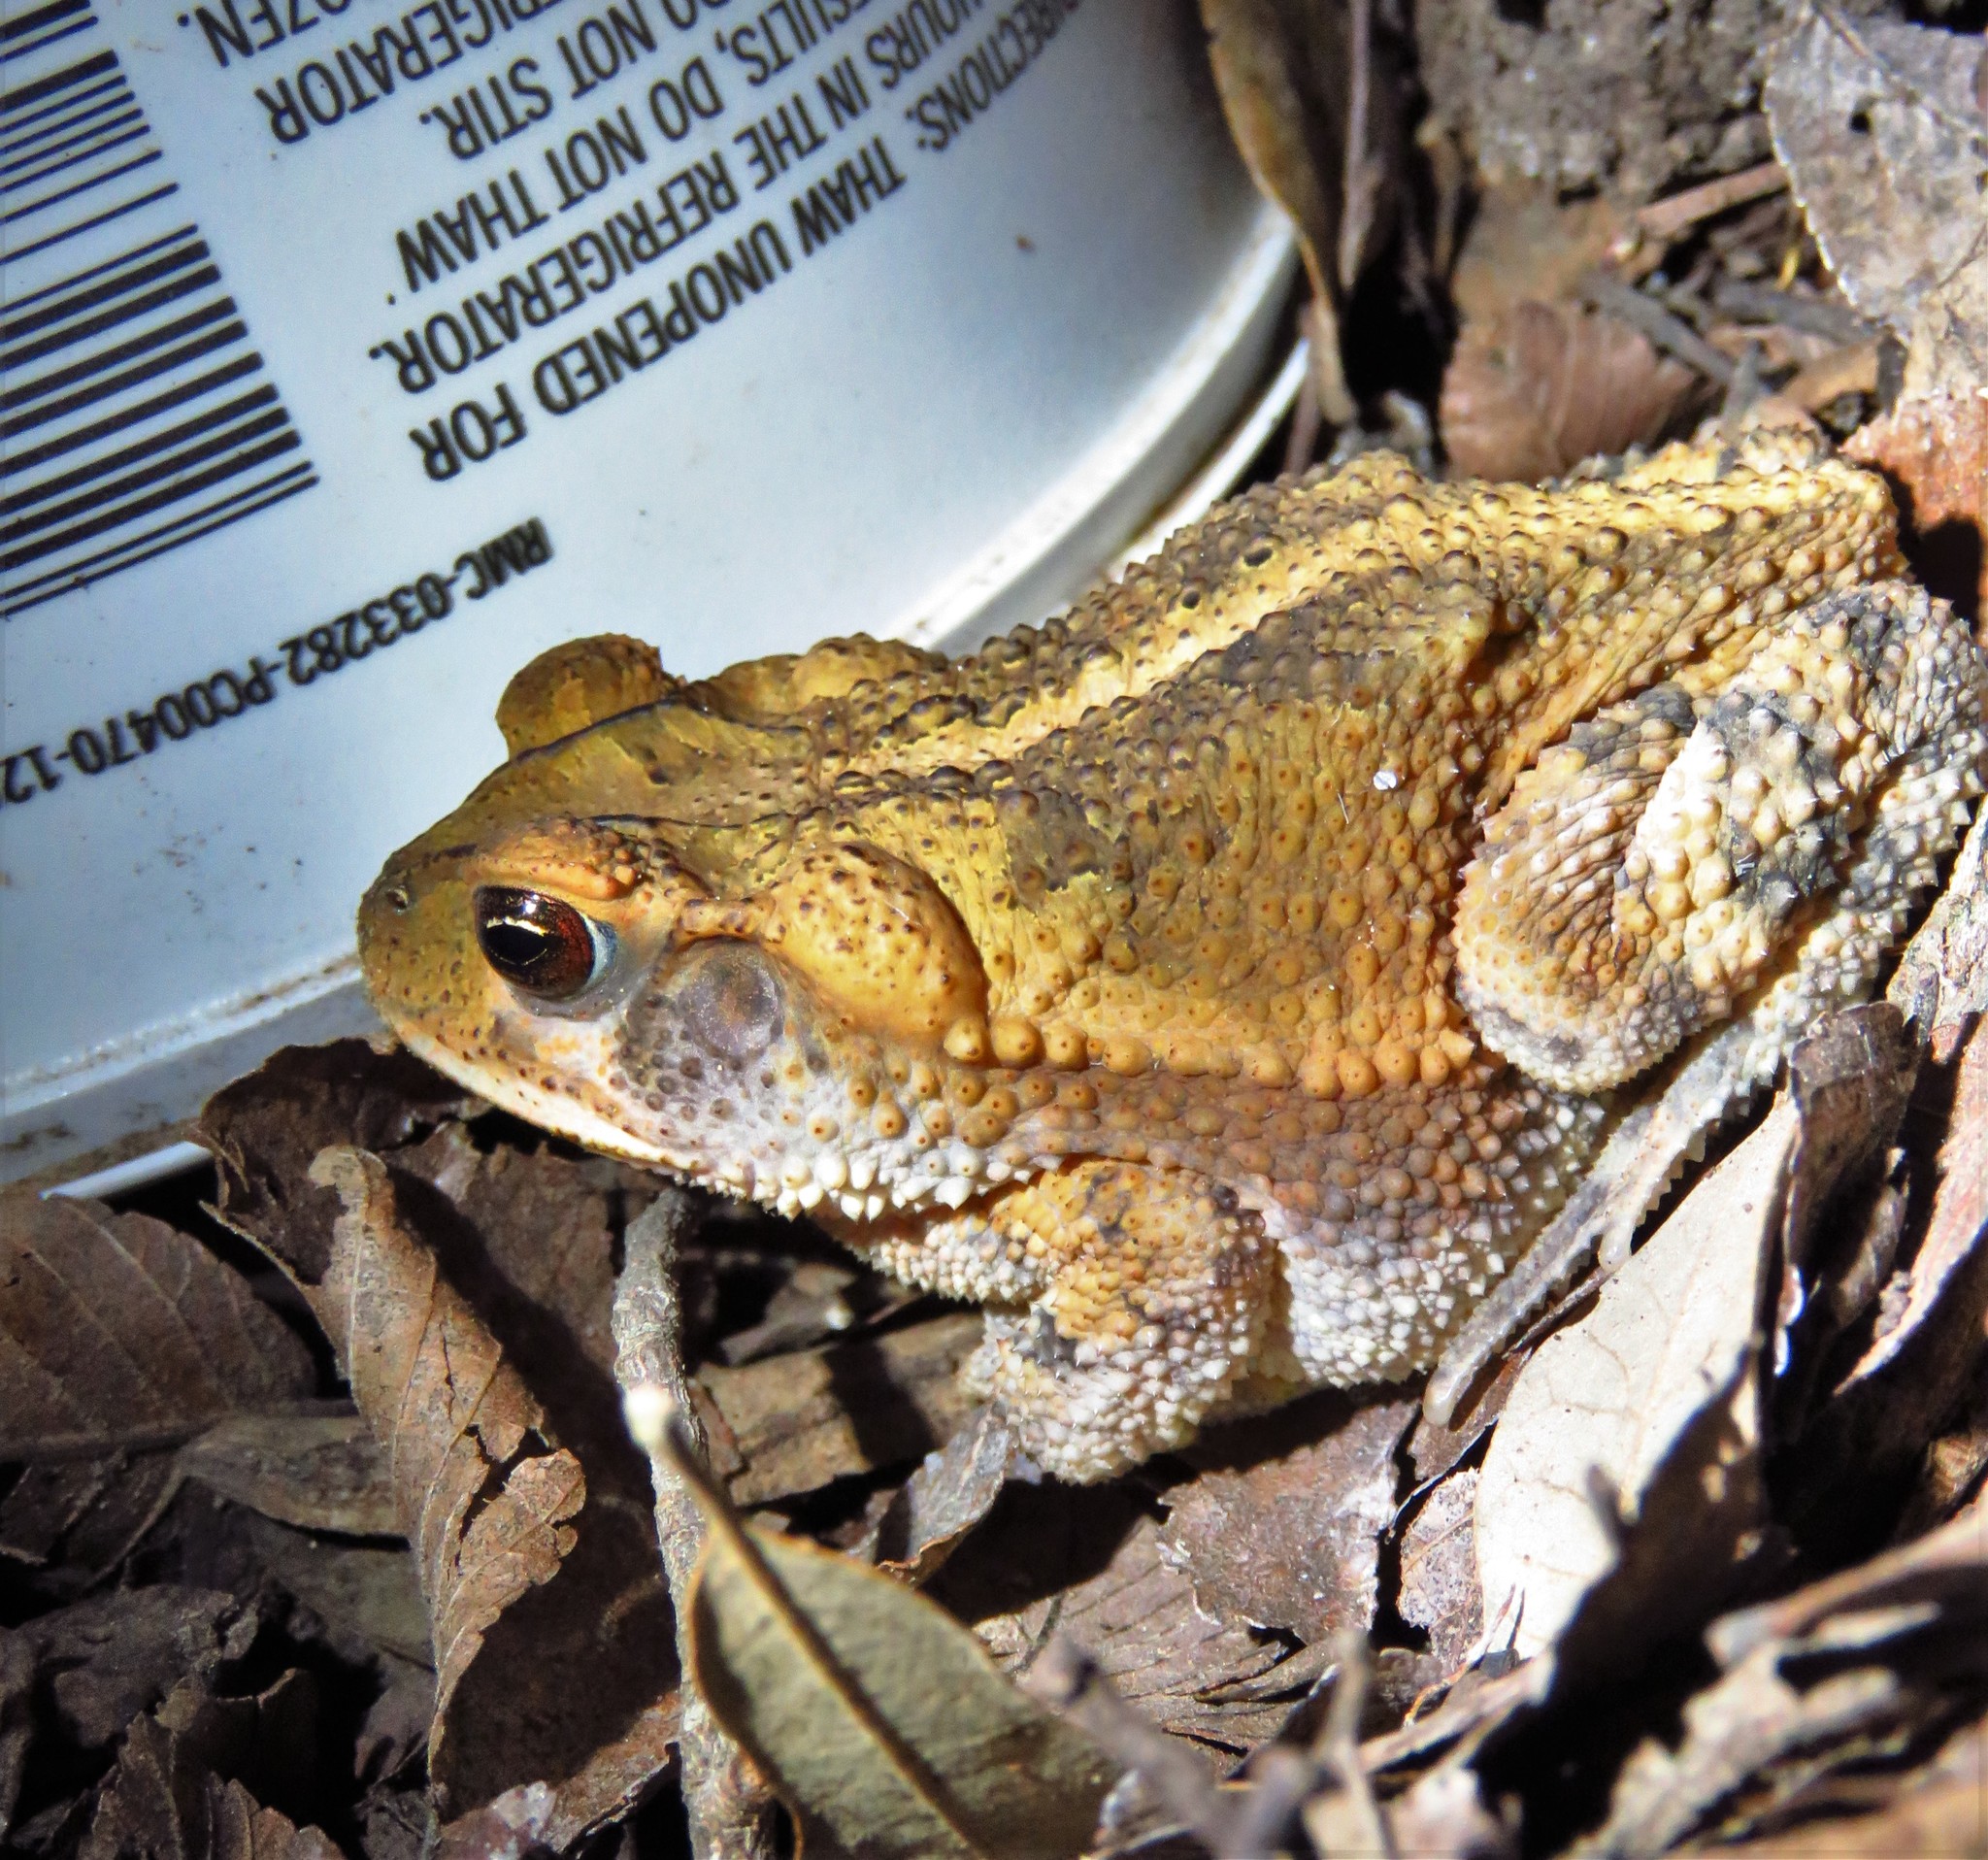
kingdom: Animalia
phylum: Chordata
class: Amphibia
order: Anura
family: Bufonidae
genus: Incilius
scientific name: Incilius nebulifer
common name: Gulf coast toad
